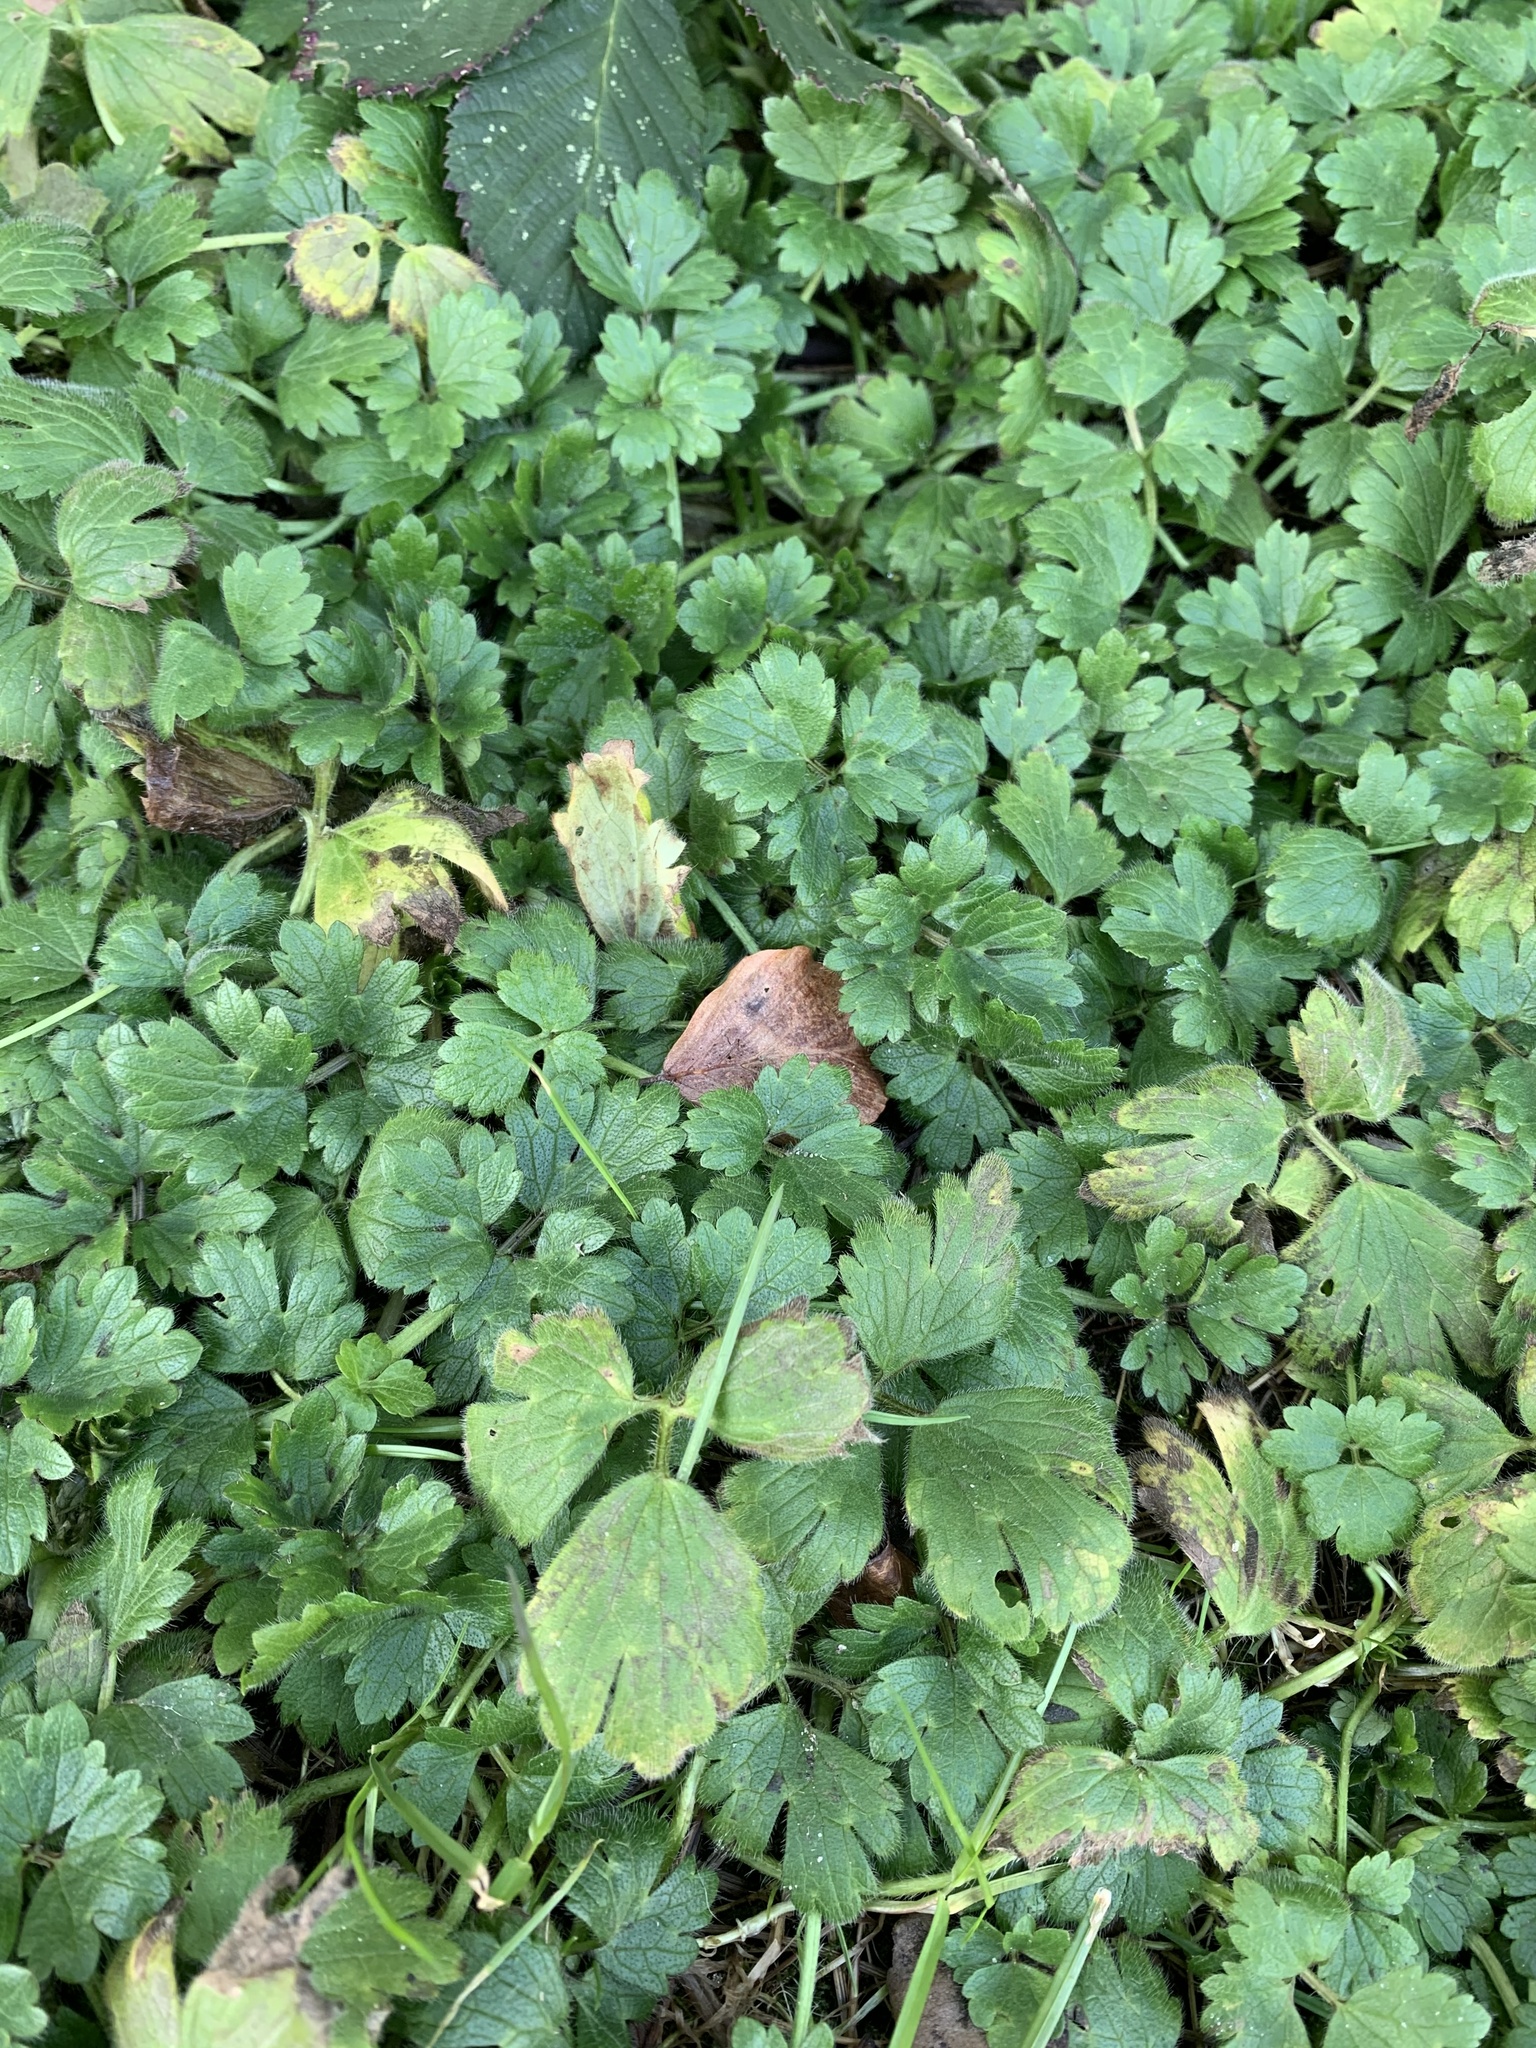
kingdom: Plantae
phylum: Tracheophyta
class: Magnoliopsida
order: Ranunculales
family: Ranunculaceae
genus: Ranunculus
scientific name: Ranunculus repens
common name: Creeping buttercup
